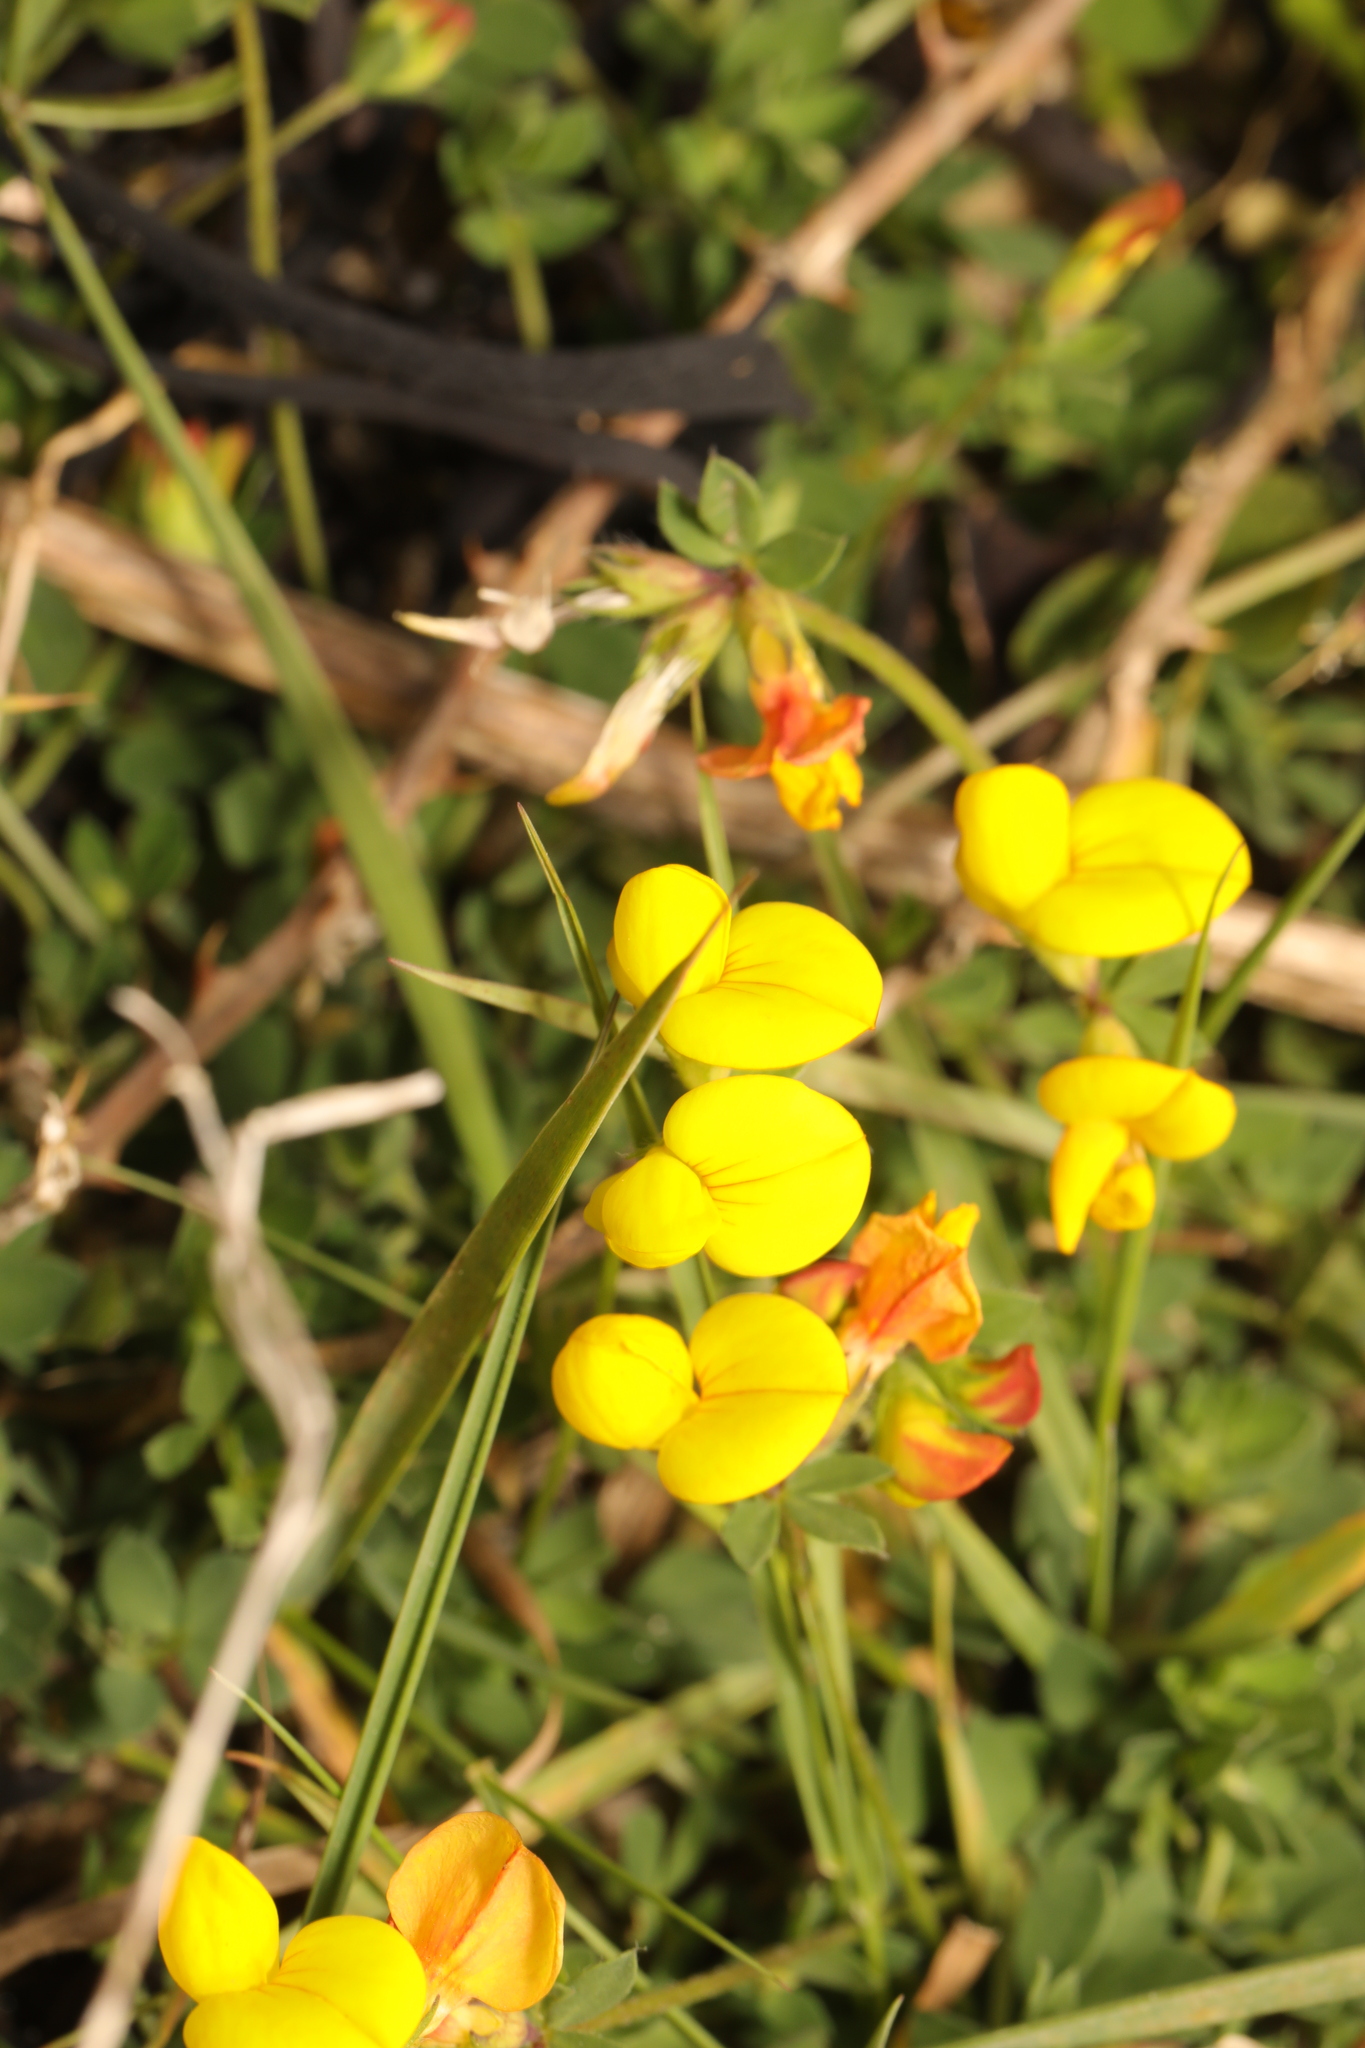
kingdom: Plantae
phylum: Tracheophyta
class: Magnoliopsida
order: Fabales
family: Fabaceae
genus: Lotus
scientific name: Lotus corniculatus
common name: Common bird's-foot-trefoil
